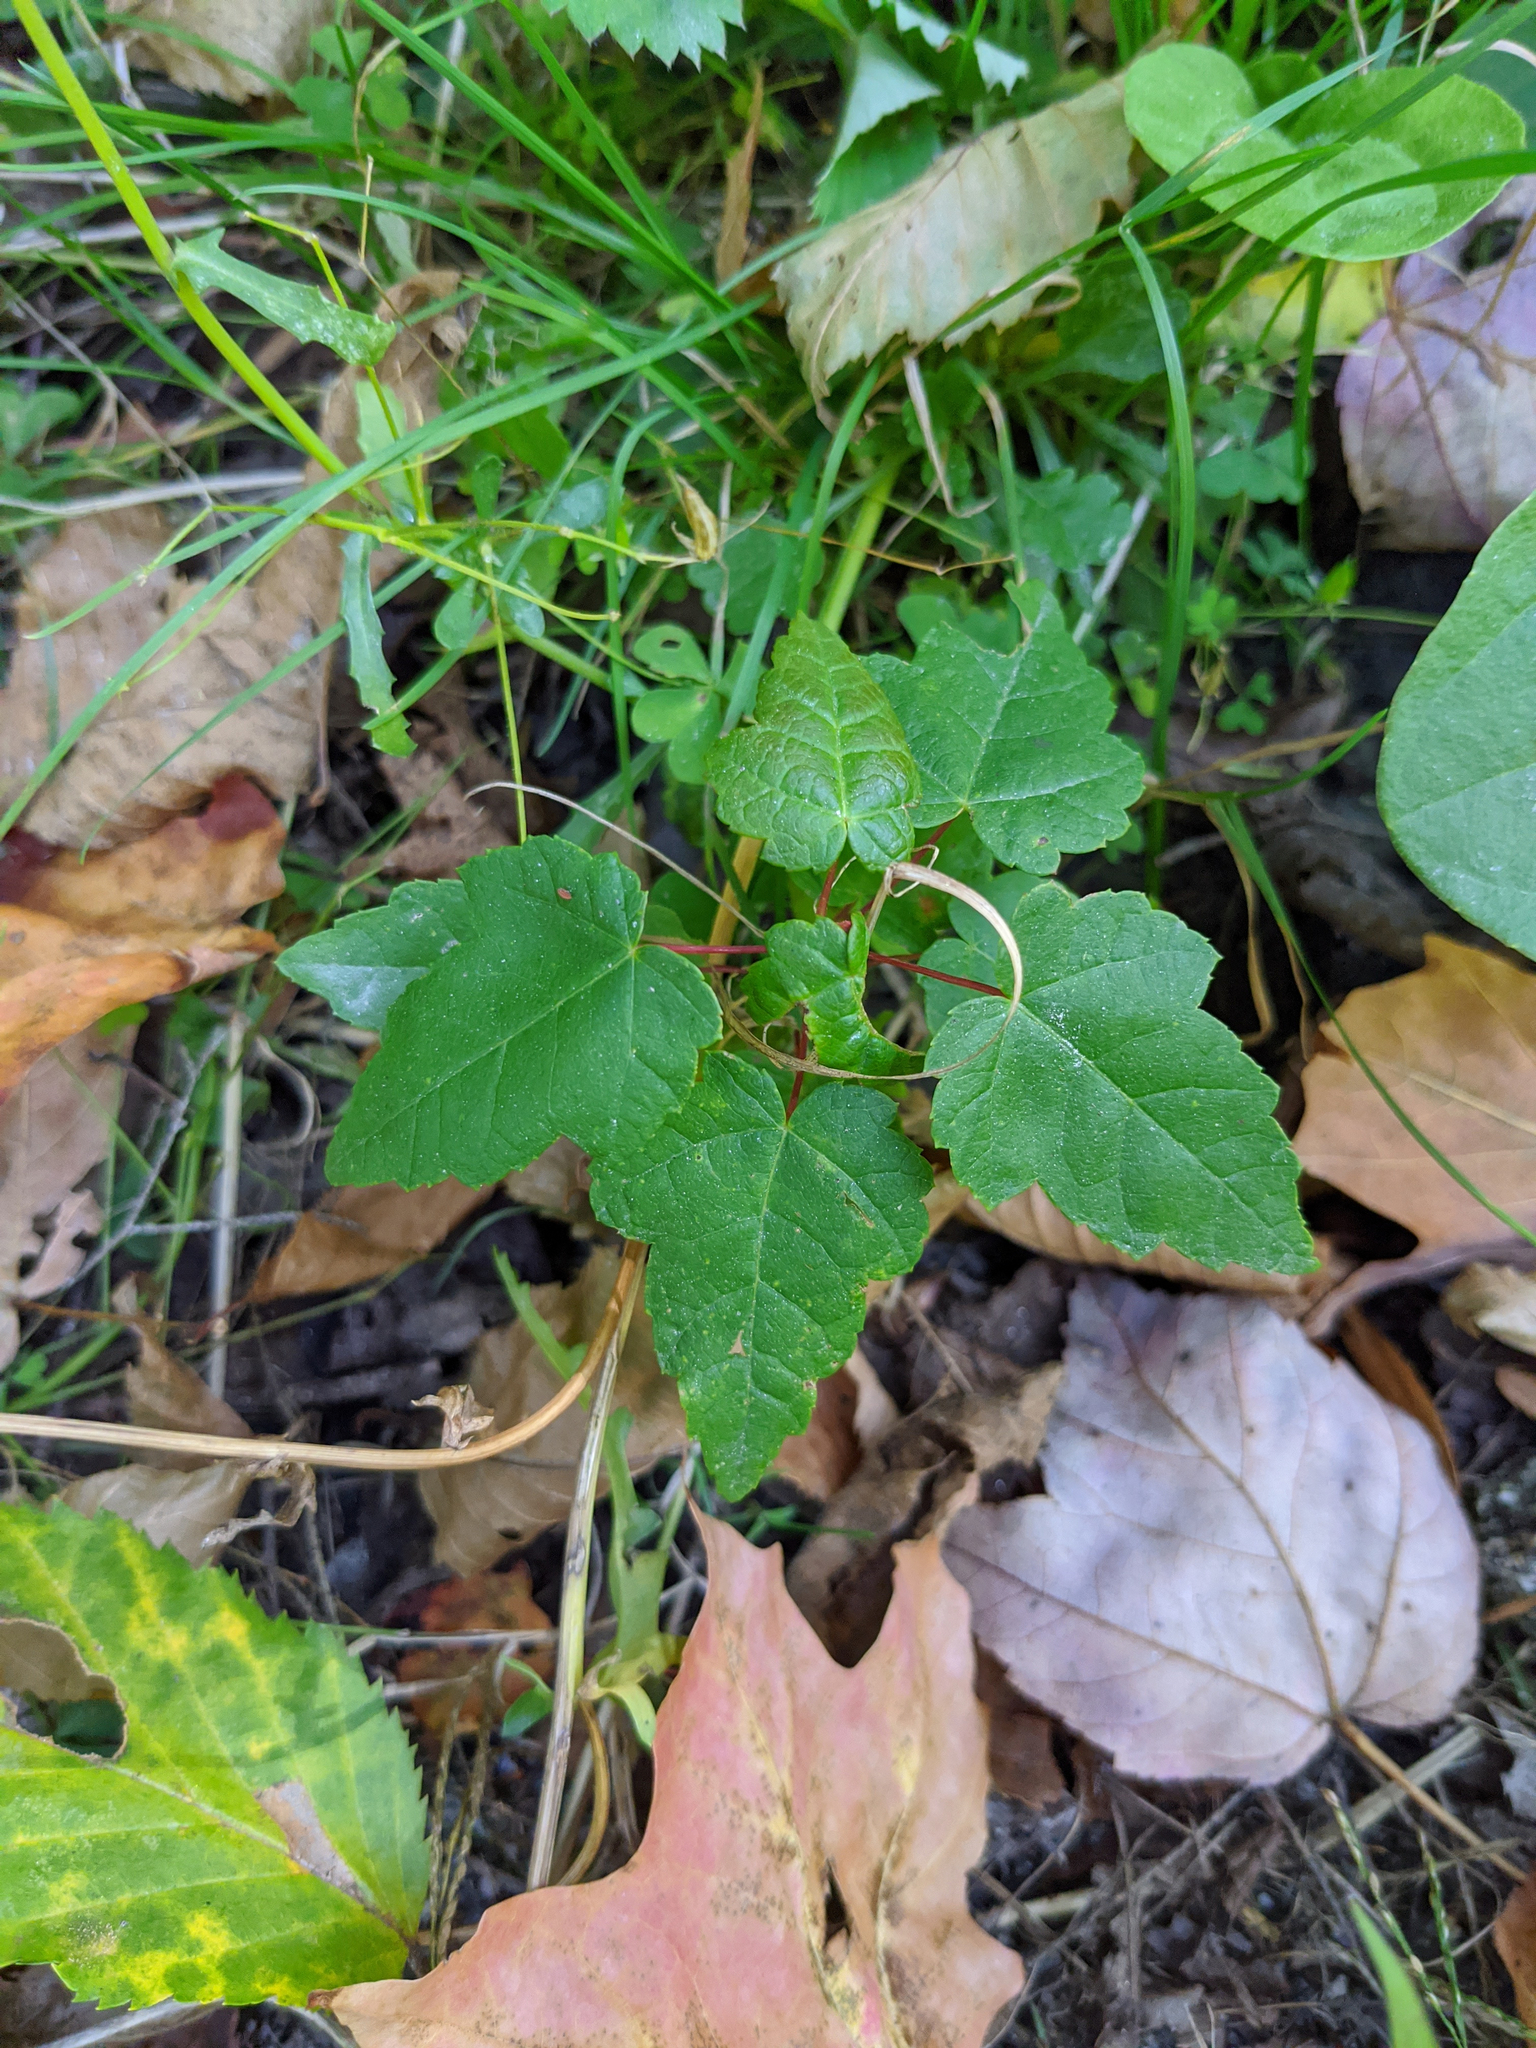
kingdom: Plantae
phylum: Tracheophyta
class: Magnoliopsida
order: Sapindales
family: Sapindaceae
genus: Acer
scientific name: Acer rubrum
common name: Red maple
